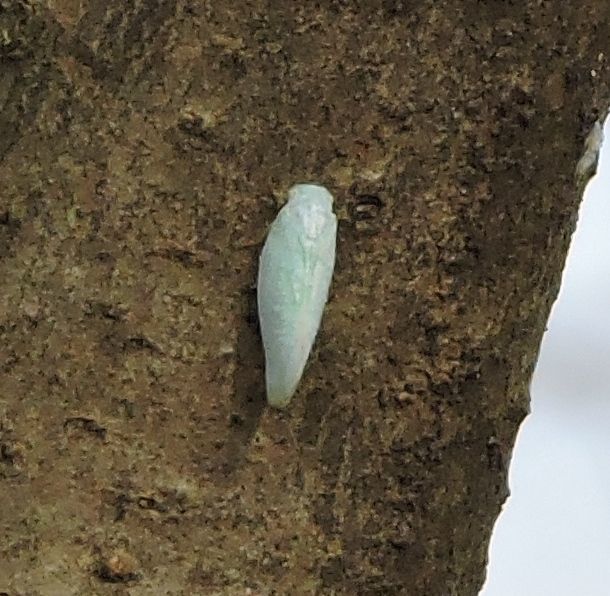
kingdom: Animalia
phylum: Arthropoda
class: Insecta
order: Hemiptera
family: Flatidae
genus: Flatormenis
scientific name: Flatormenis proxima
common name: Northern flatid planthopper
